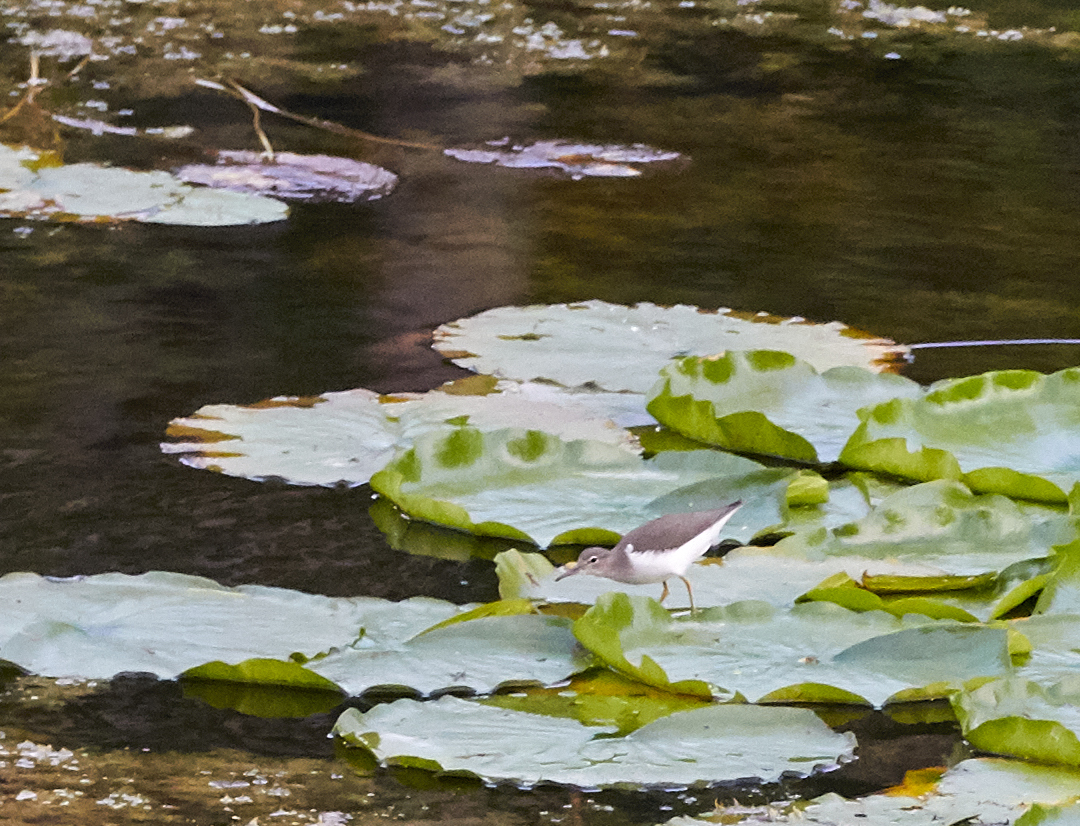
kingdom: Animalia
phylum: Chordata
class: Aves
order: Charadriiformes
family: Scolopacidae
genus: Actitis
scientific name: Actitis macularius
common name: Spotted sandpiper
